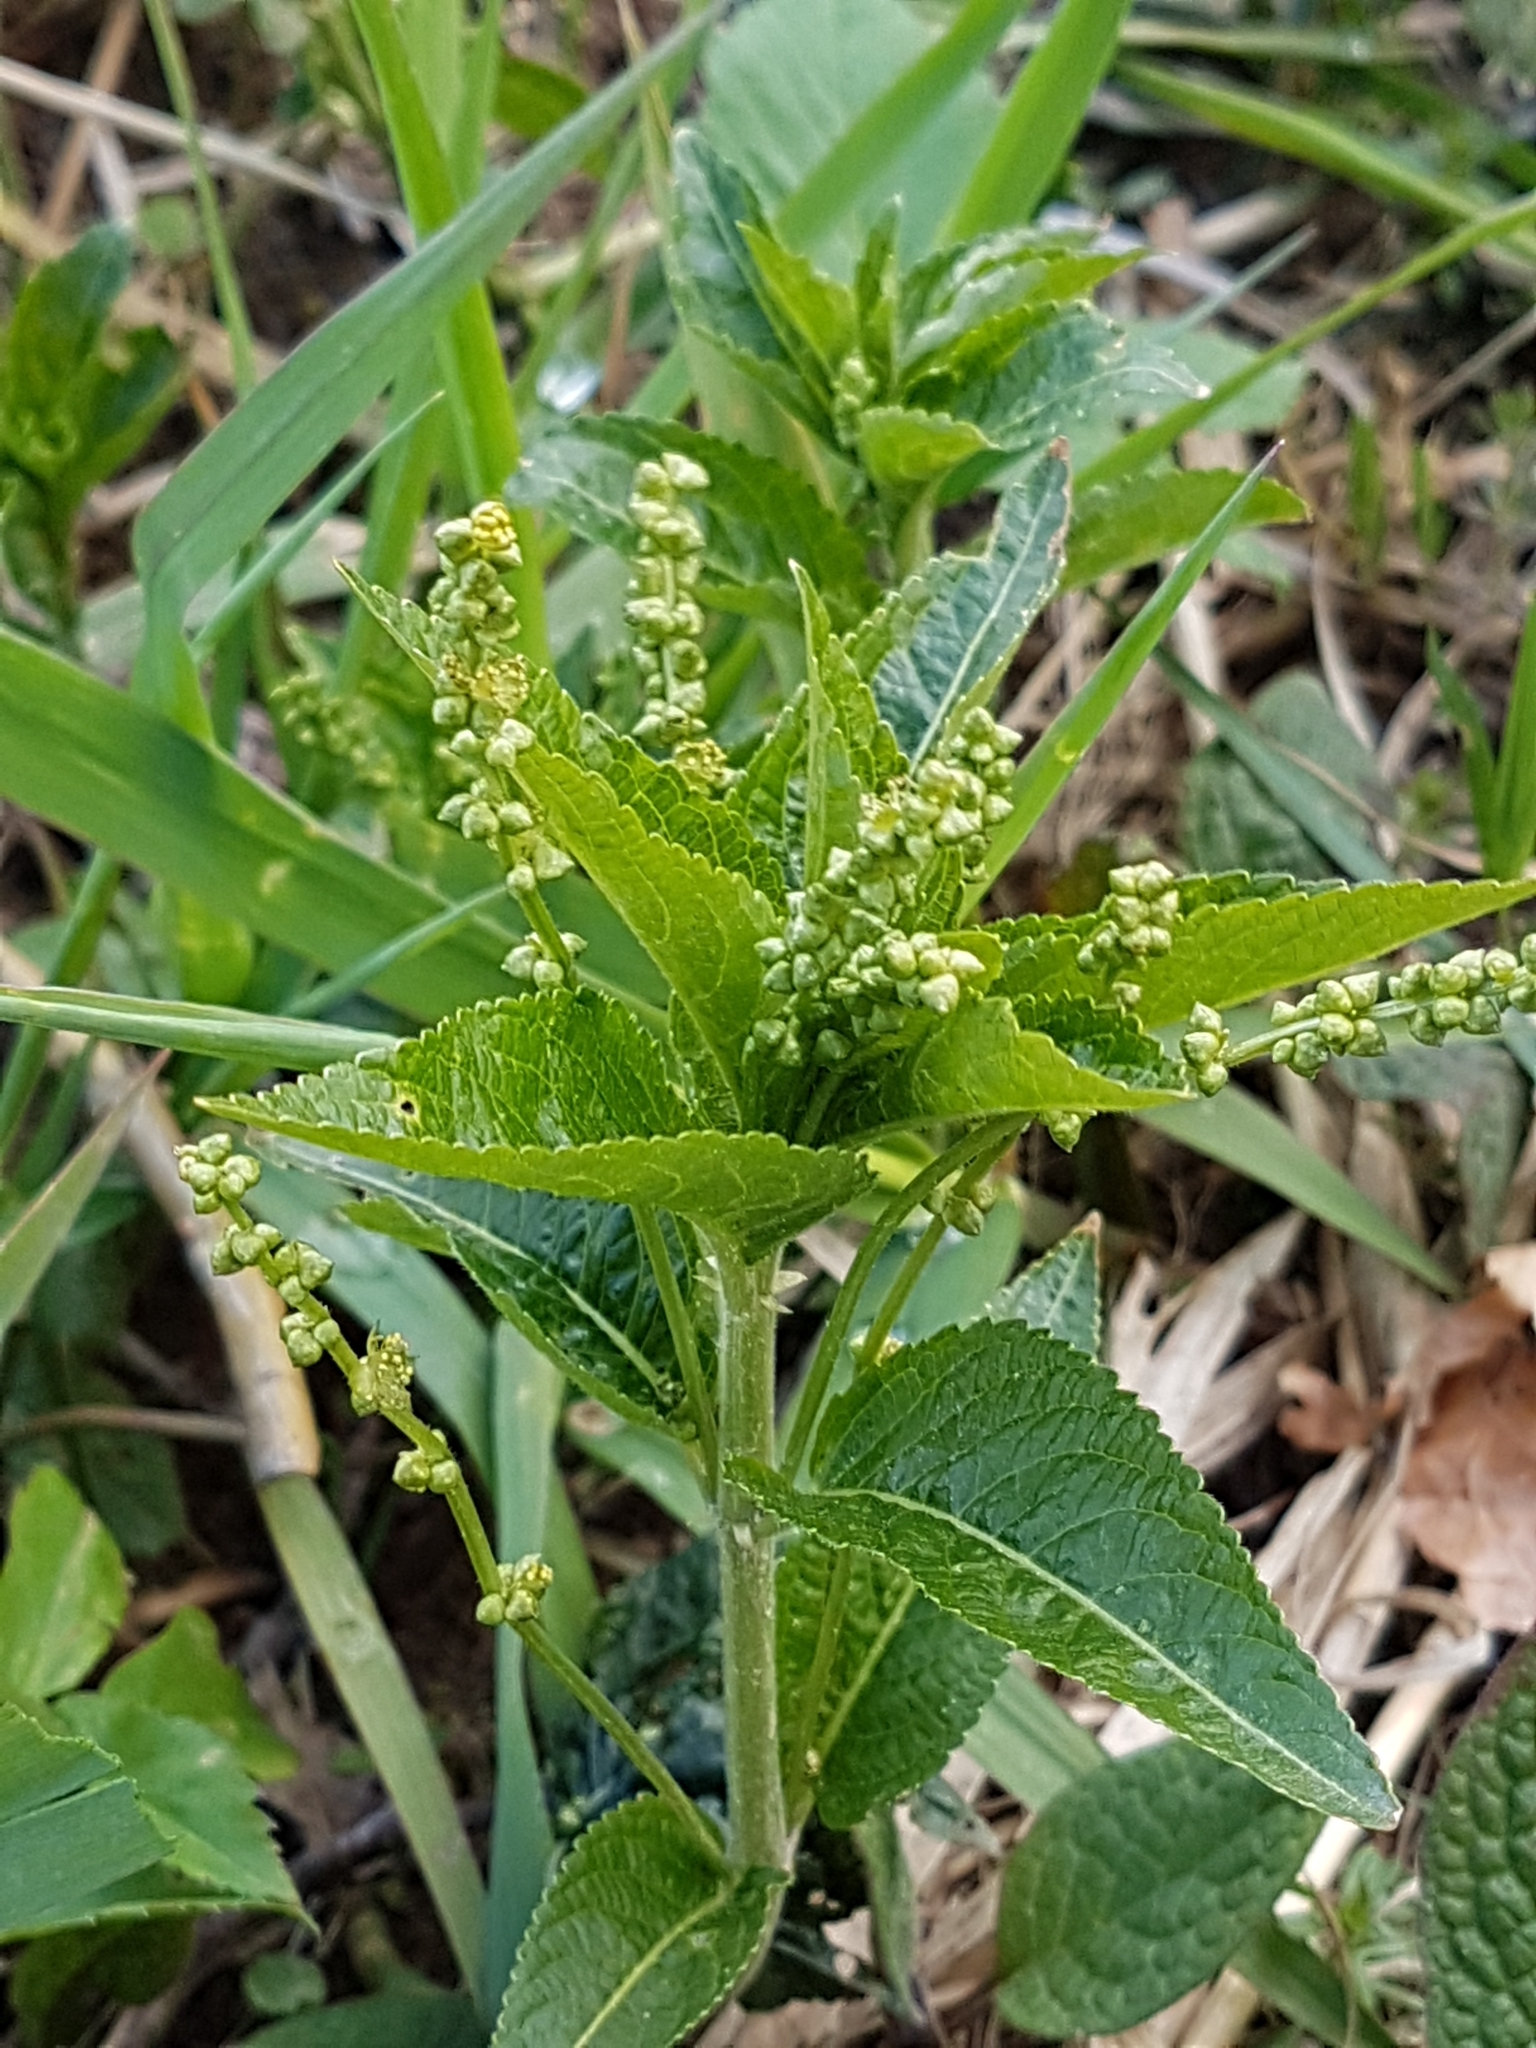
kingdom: Plantae
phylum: Tracheophyta
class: Magnoliopsida
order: Malpighiales
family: Euphorbiaceae
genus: Mercurialis
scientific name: Mercurialis perennis
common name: Dog mercury
